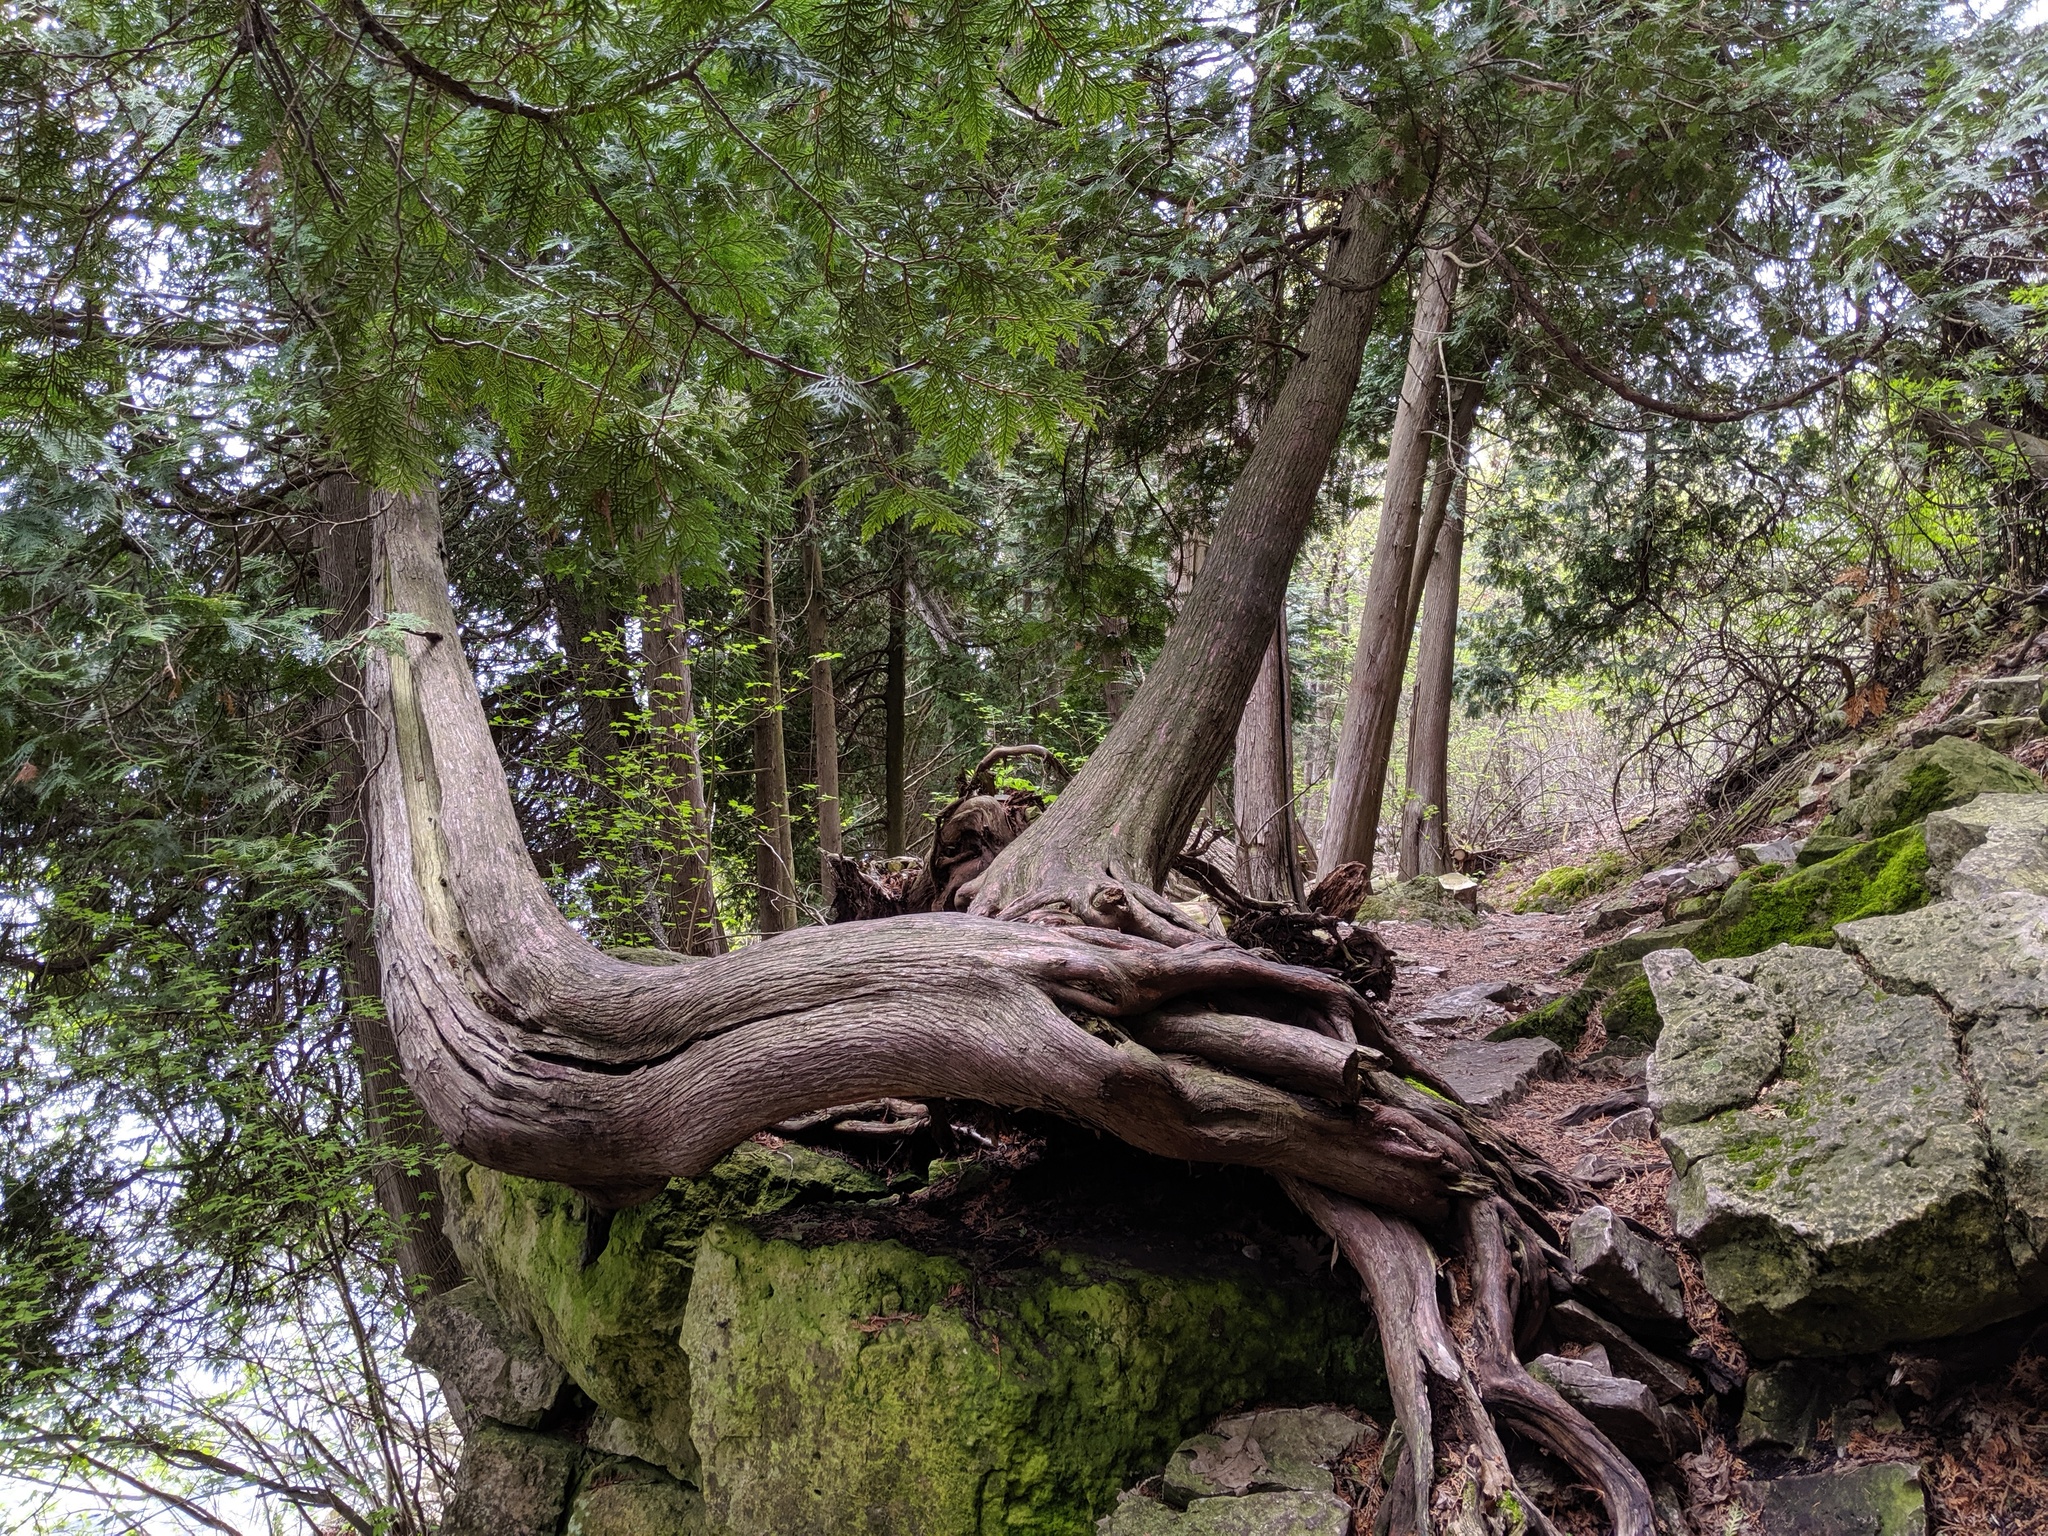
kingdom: Plantae
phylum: Tracheophyta
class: Pinopsida
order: Pinales
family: Cupressaceae
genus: Thuja
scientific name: Thuja occidentalis
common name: Northern white-cedar
